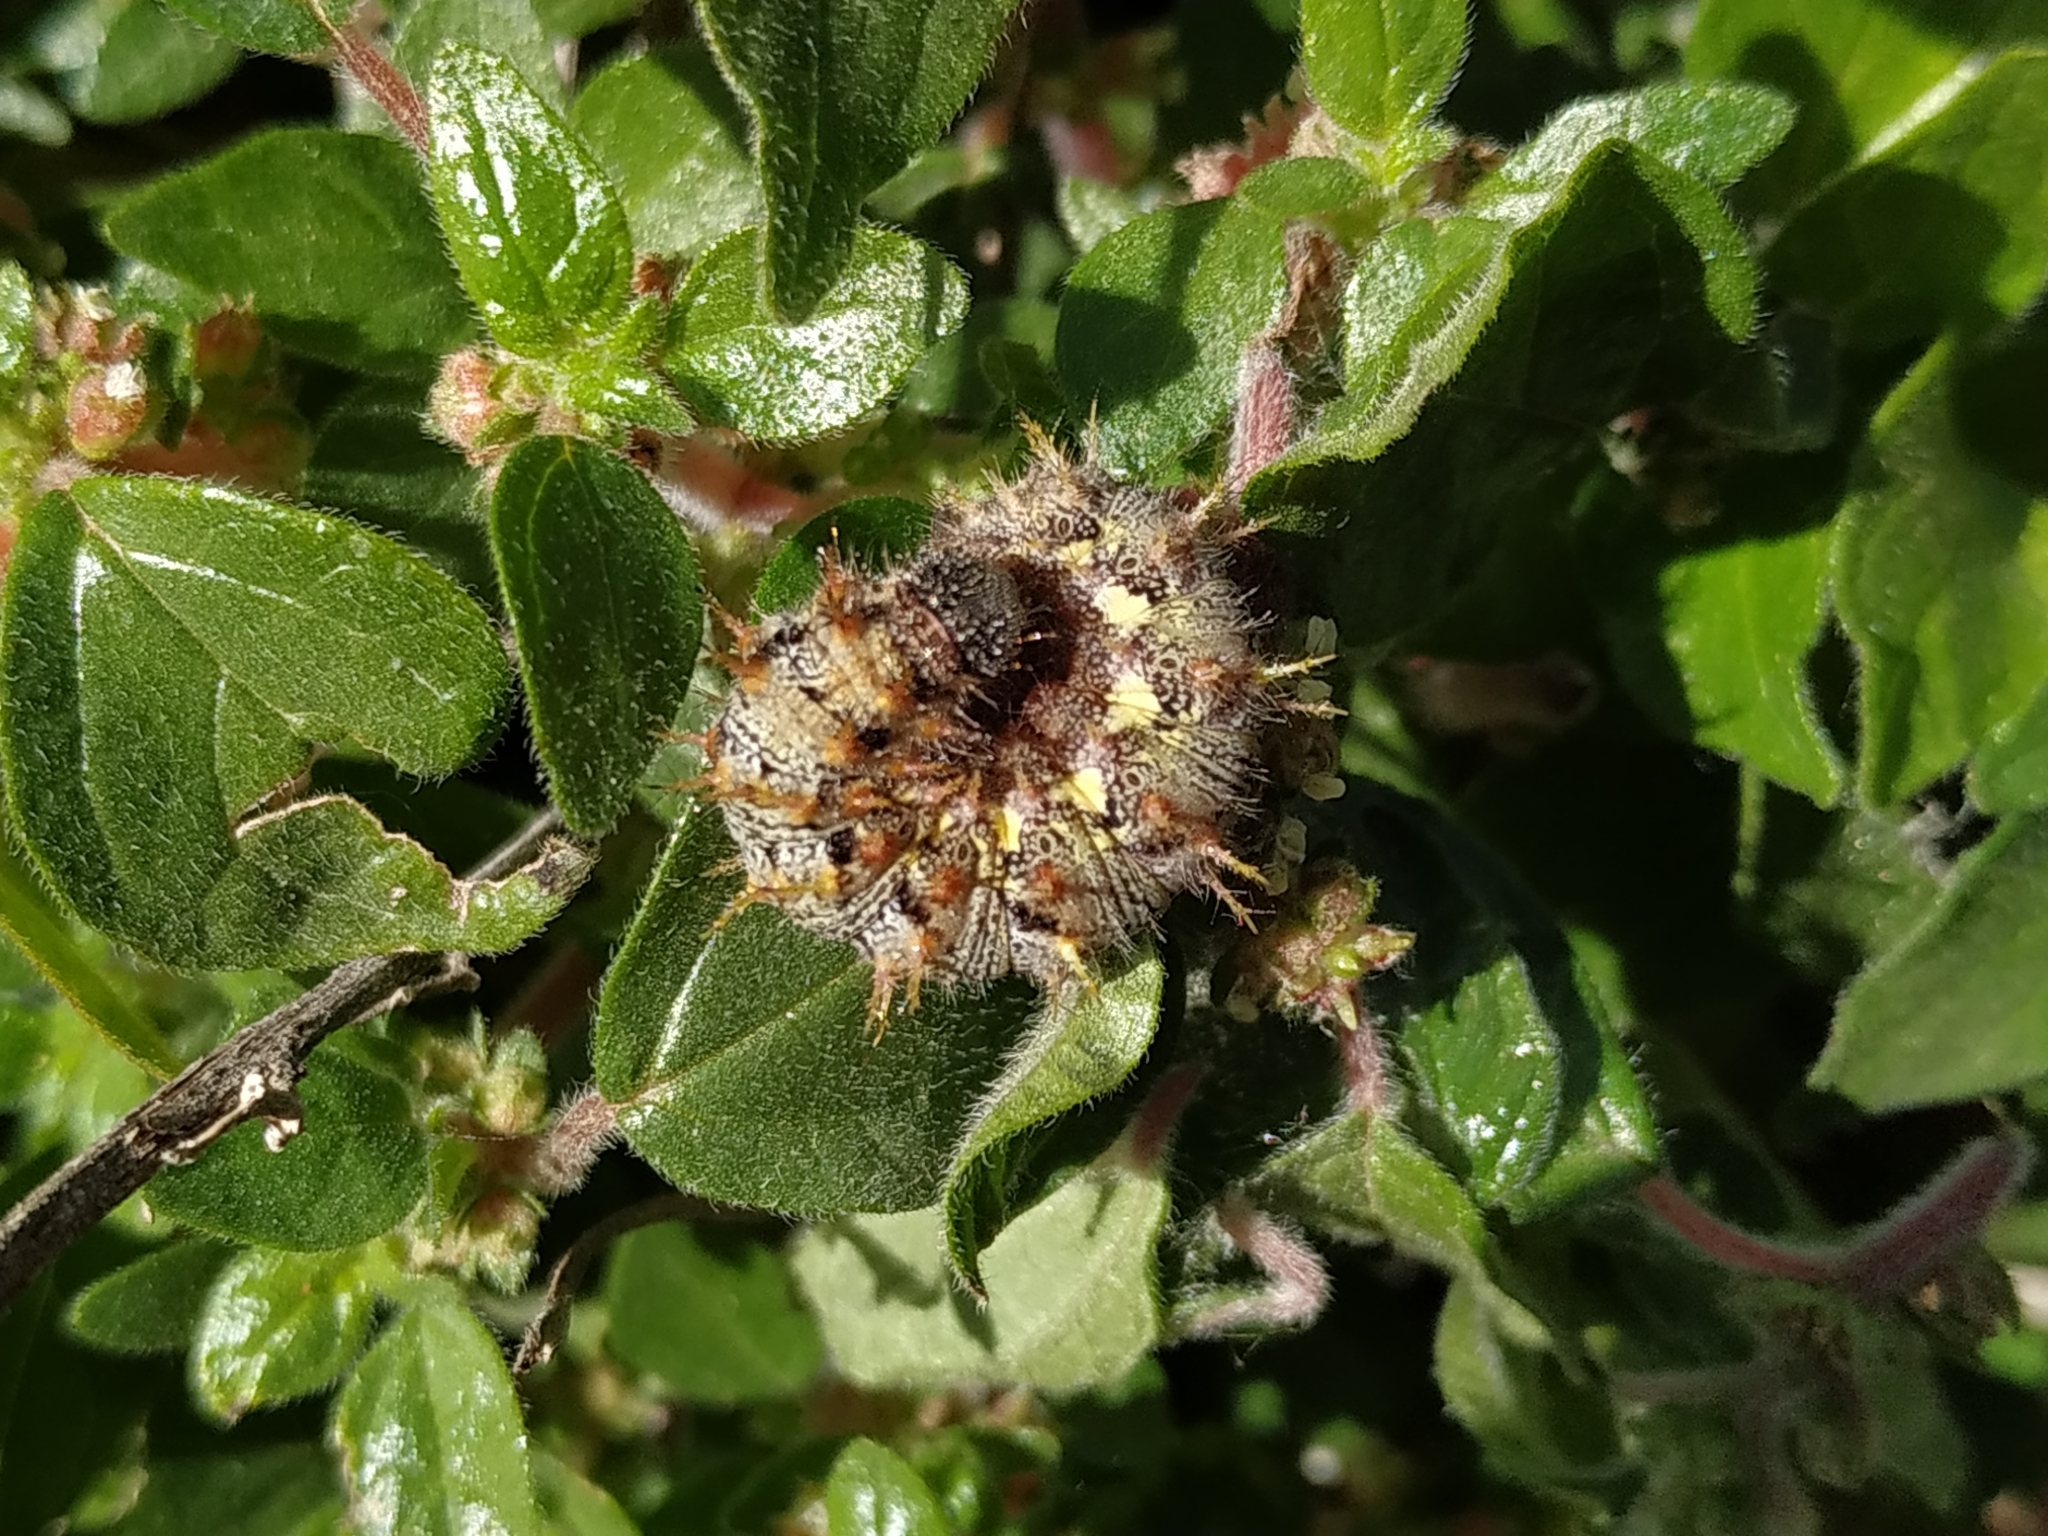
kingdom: Animalia
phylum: Arthropoda
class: Insecta
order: Lepidoptera
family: Nymphalidae
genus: Vanessa
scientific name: Vanessa atalanta
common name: Red admiral
